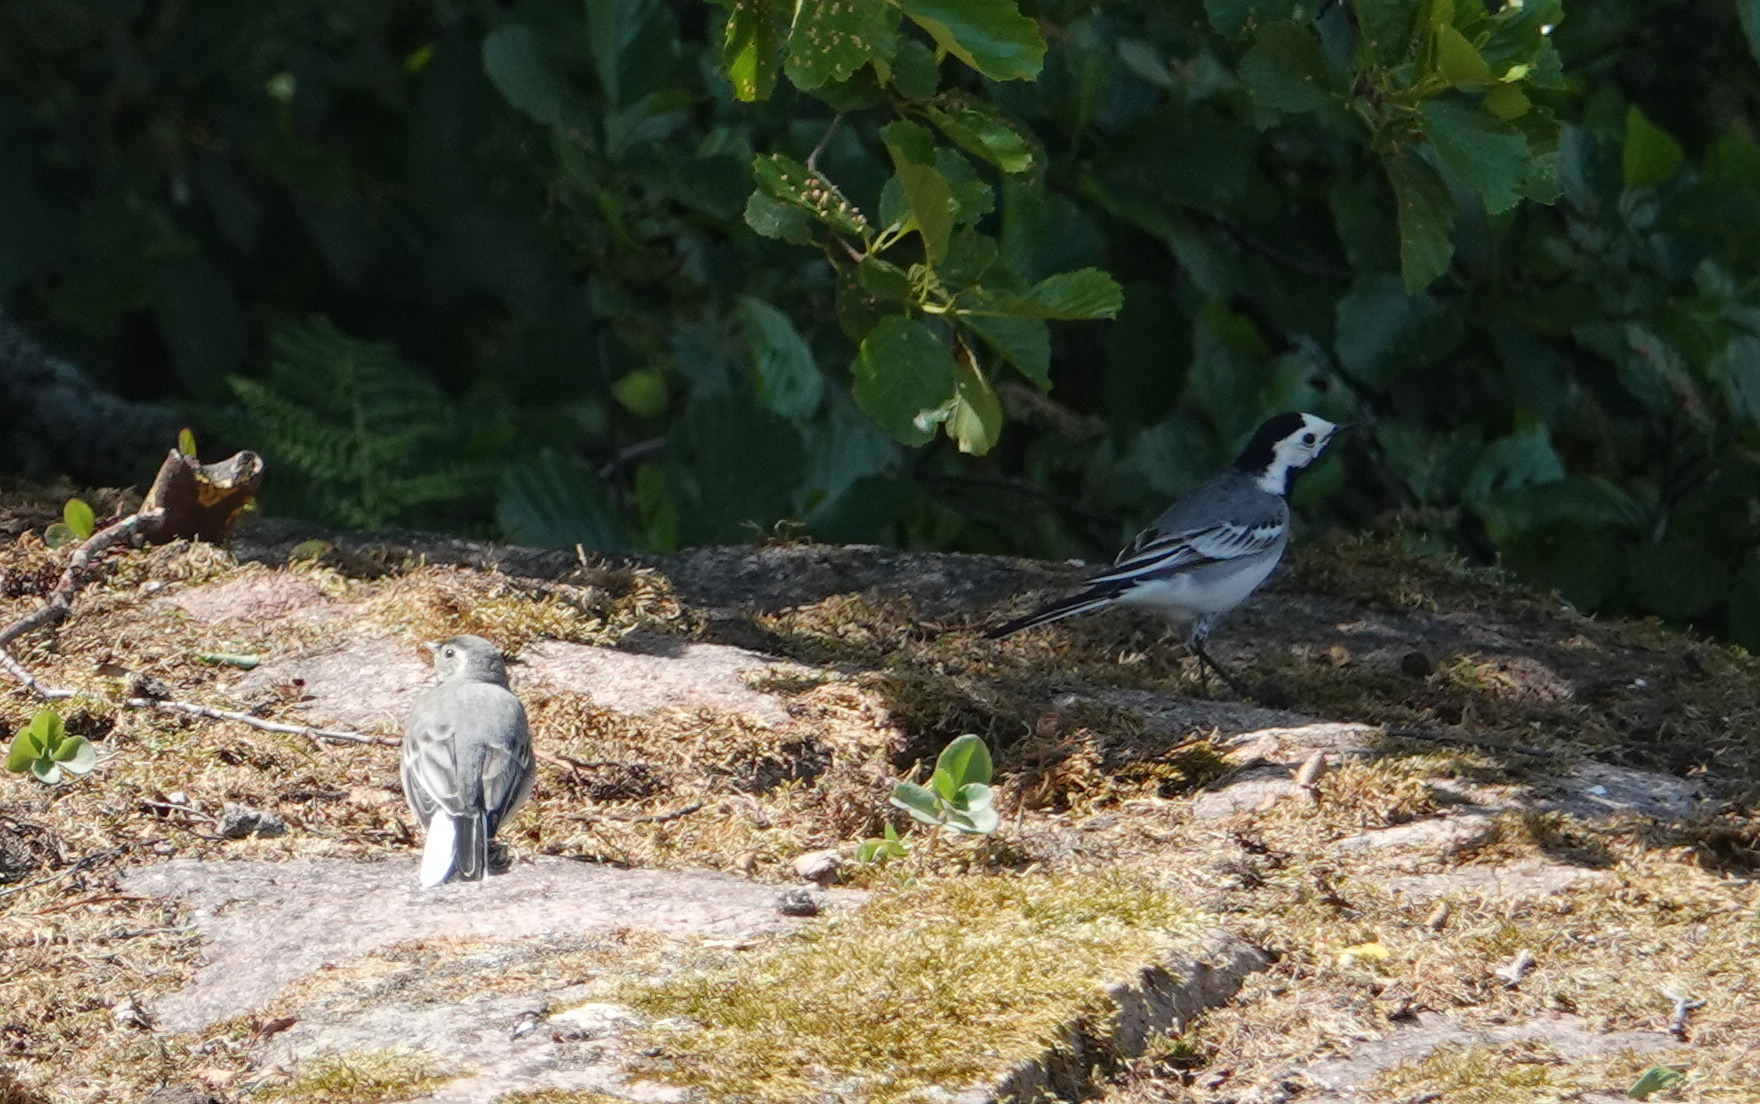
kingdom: Animalia
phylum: Chordata
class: Aves
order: Passeriformes
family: Motacillidae
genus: Motacilla
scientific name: Motacilla alba
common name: White wagtail
